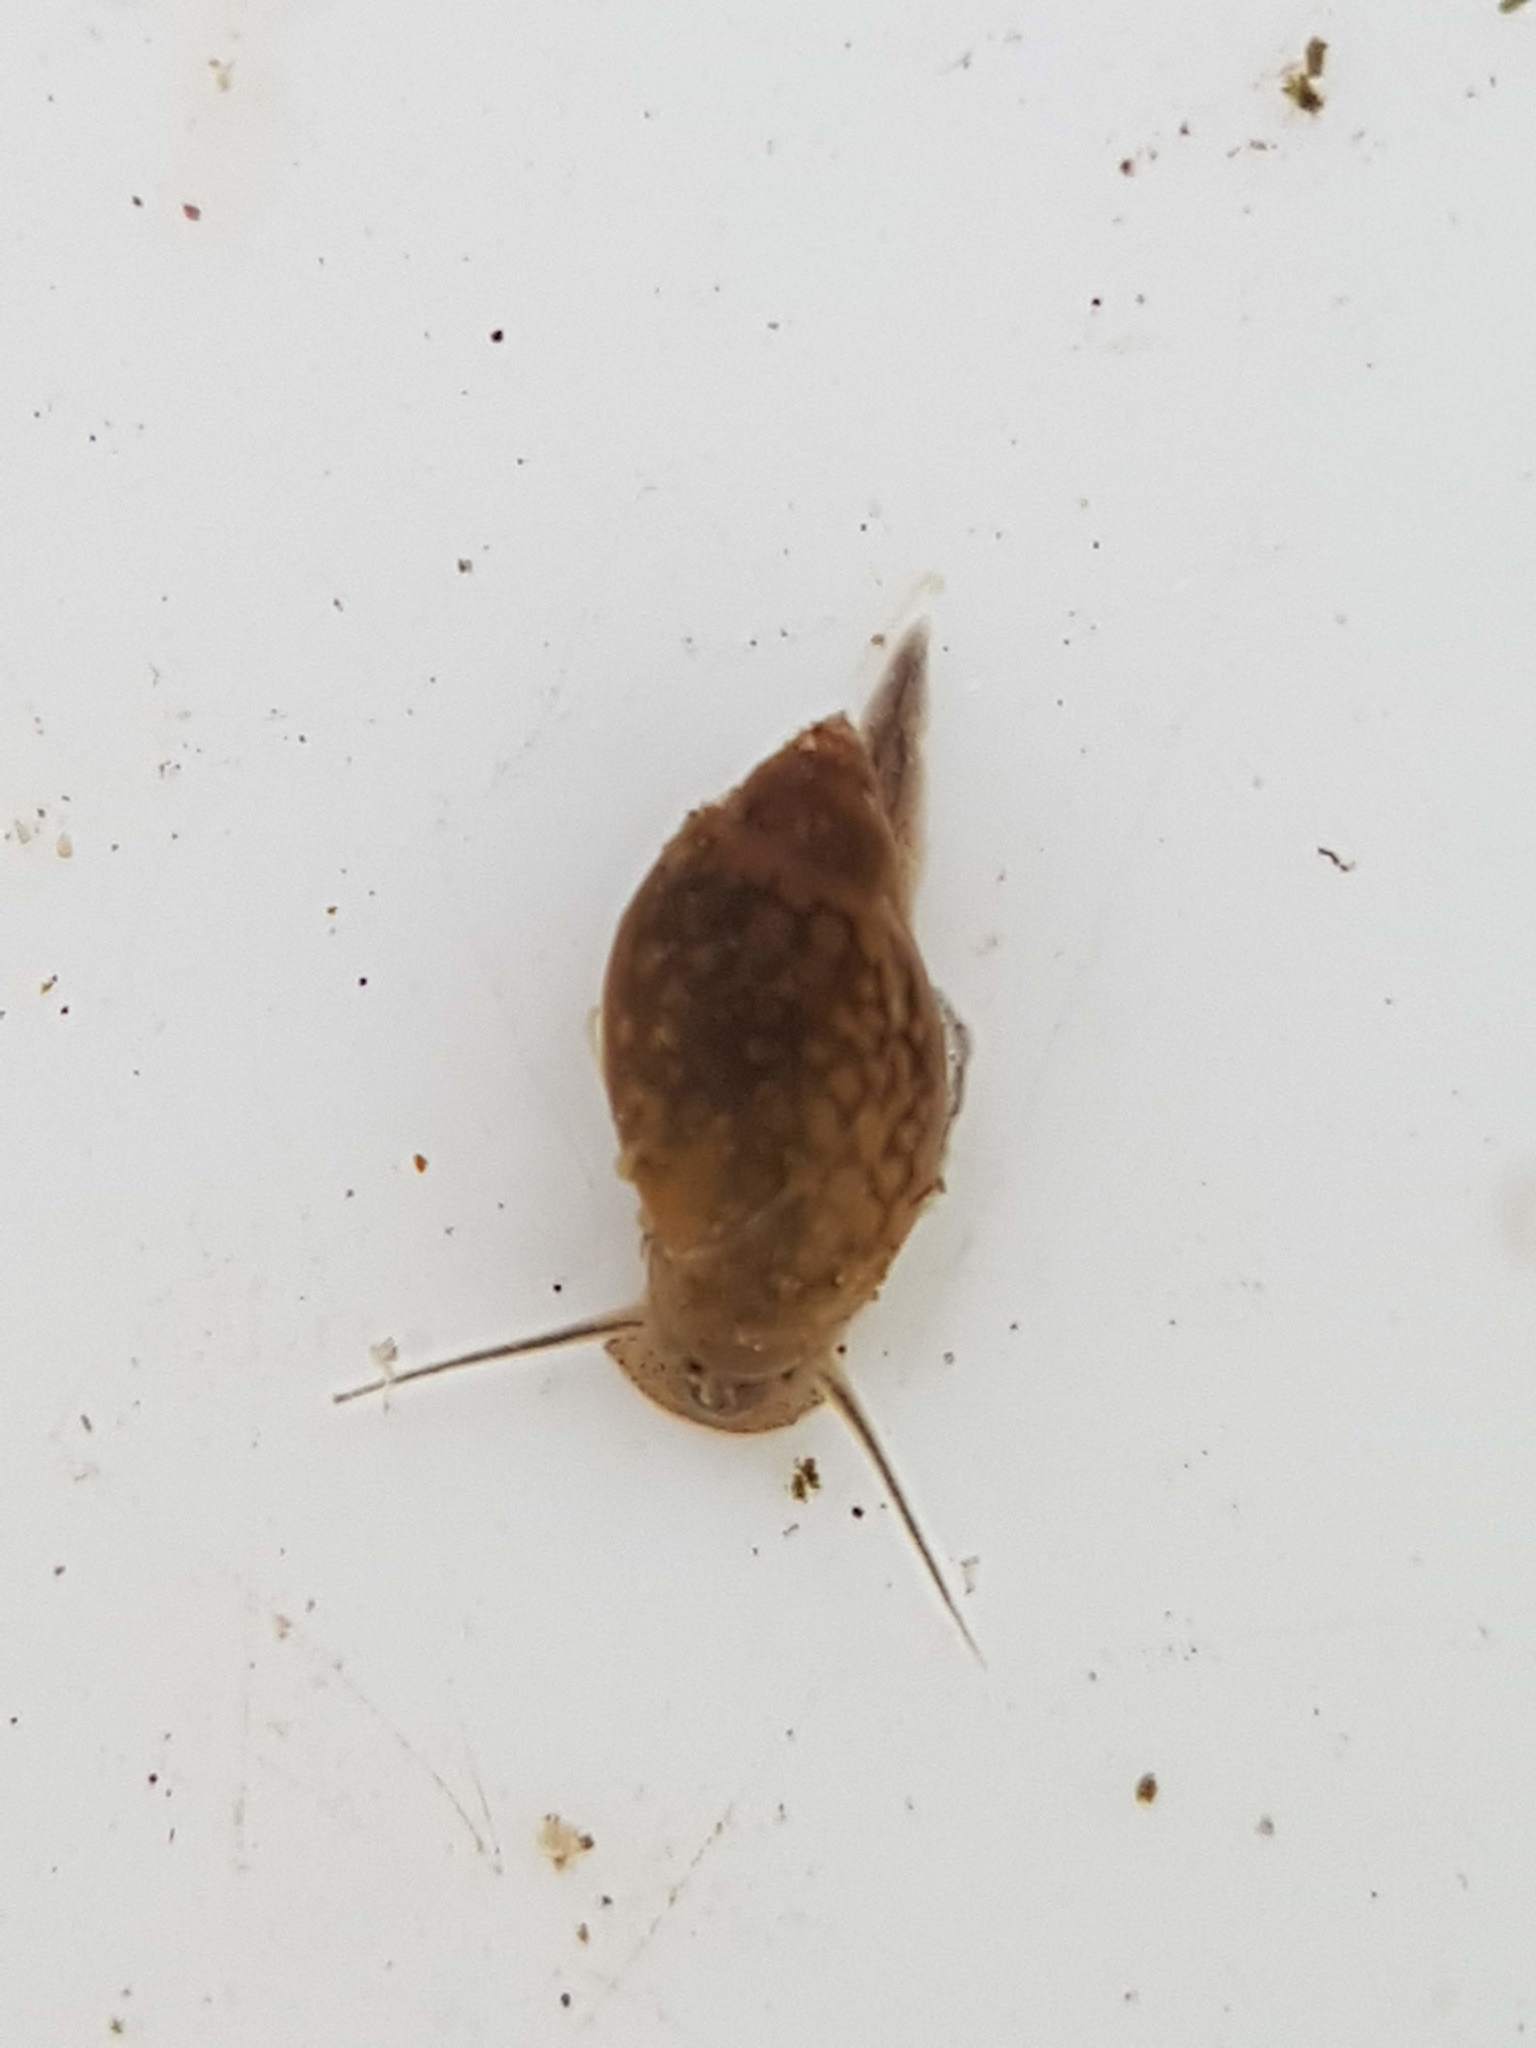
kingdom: Animalia
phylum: Mollusca
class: Gastropoda
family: Physidae
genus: Physella
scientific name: Physella acuta
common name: European physa
